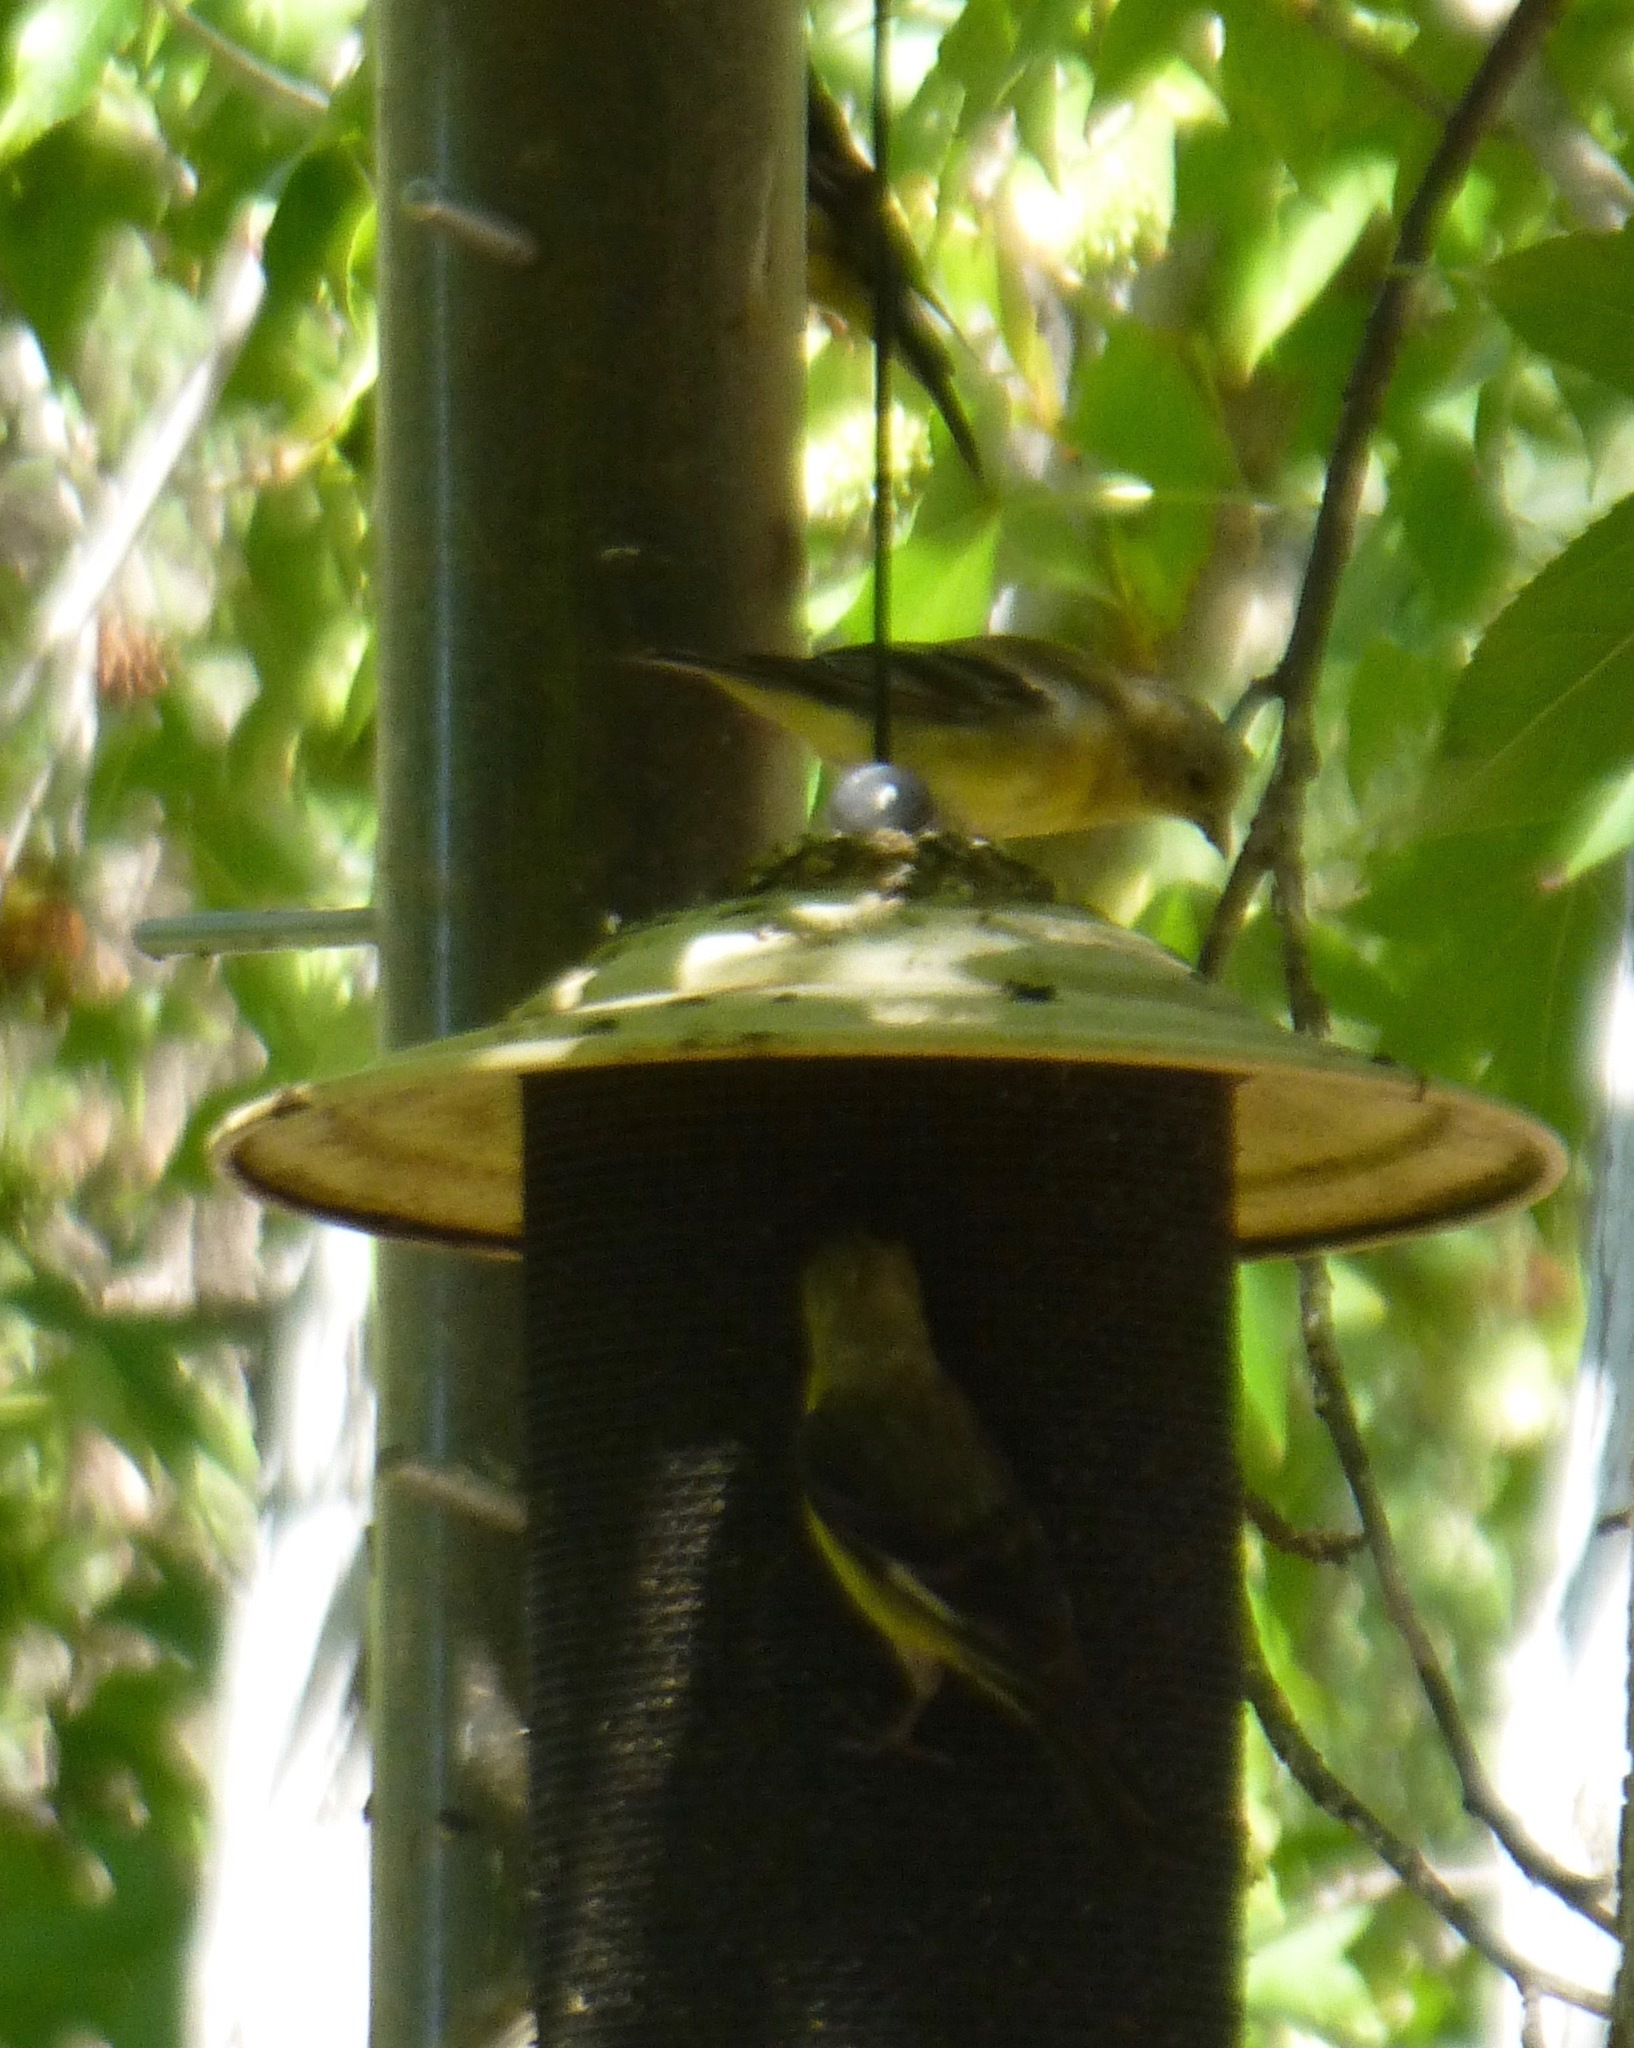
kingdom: Animalia
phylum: Chordata
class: Aves
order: Passeriformes
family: Fringillidae
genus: Spinus
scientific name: Spinus psaltria
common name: Lesser goldfinch
